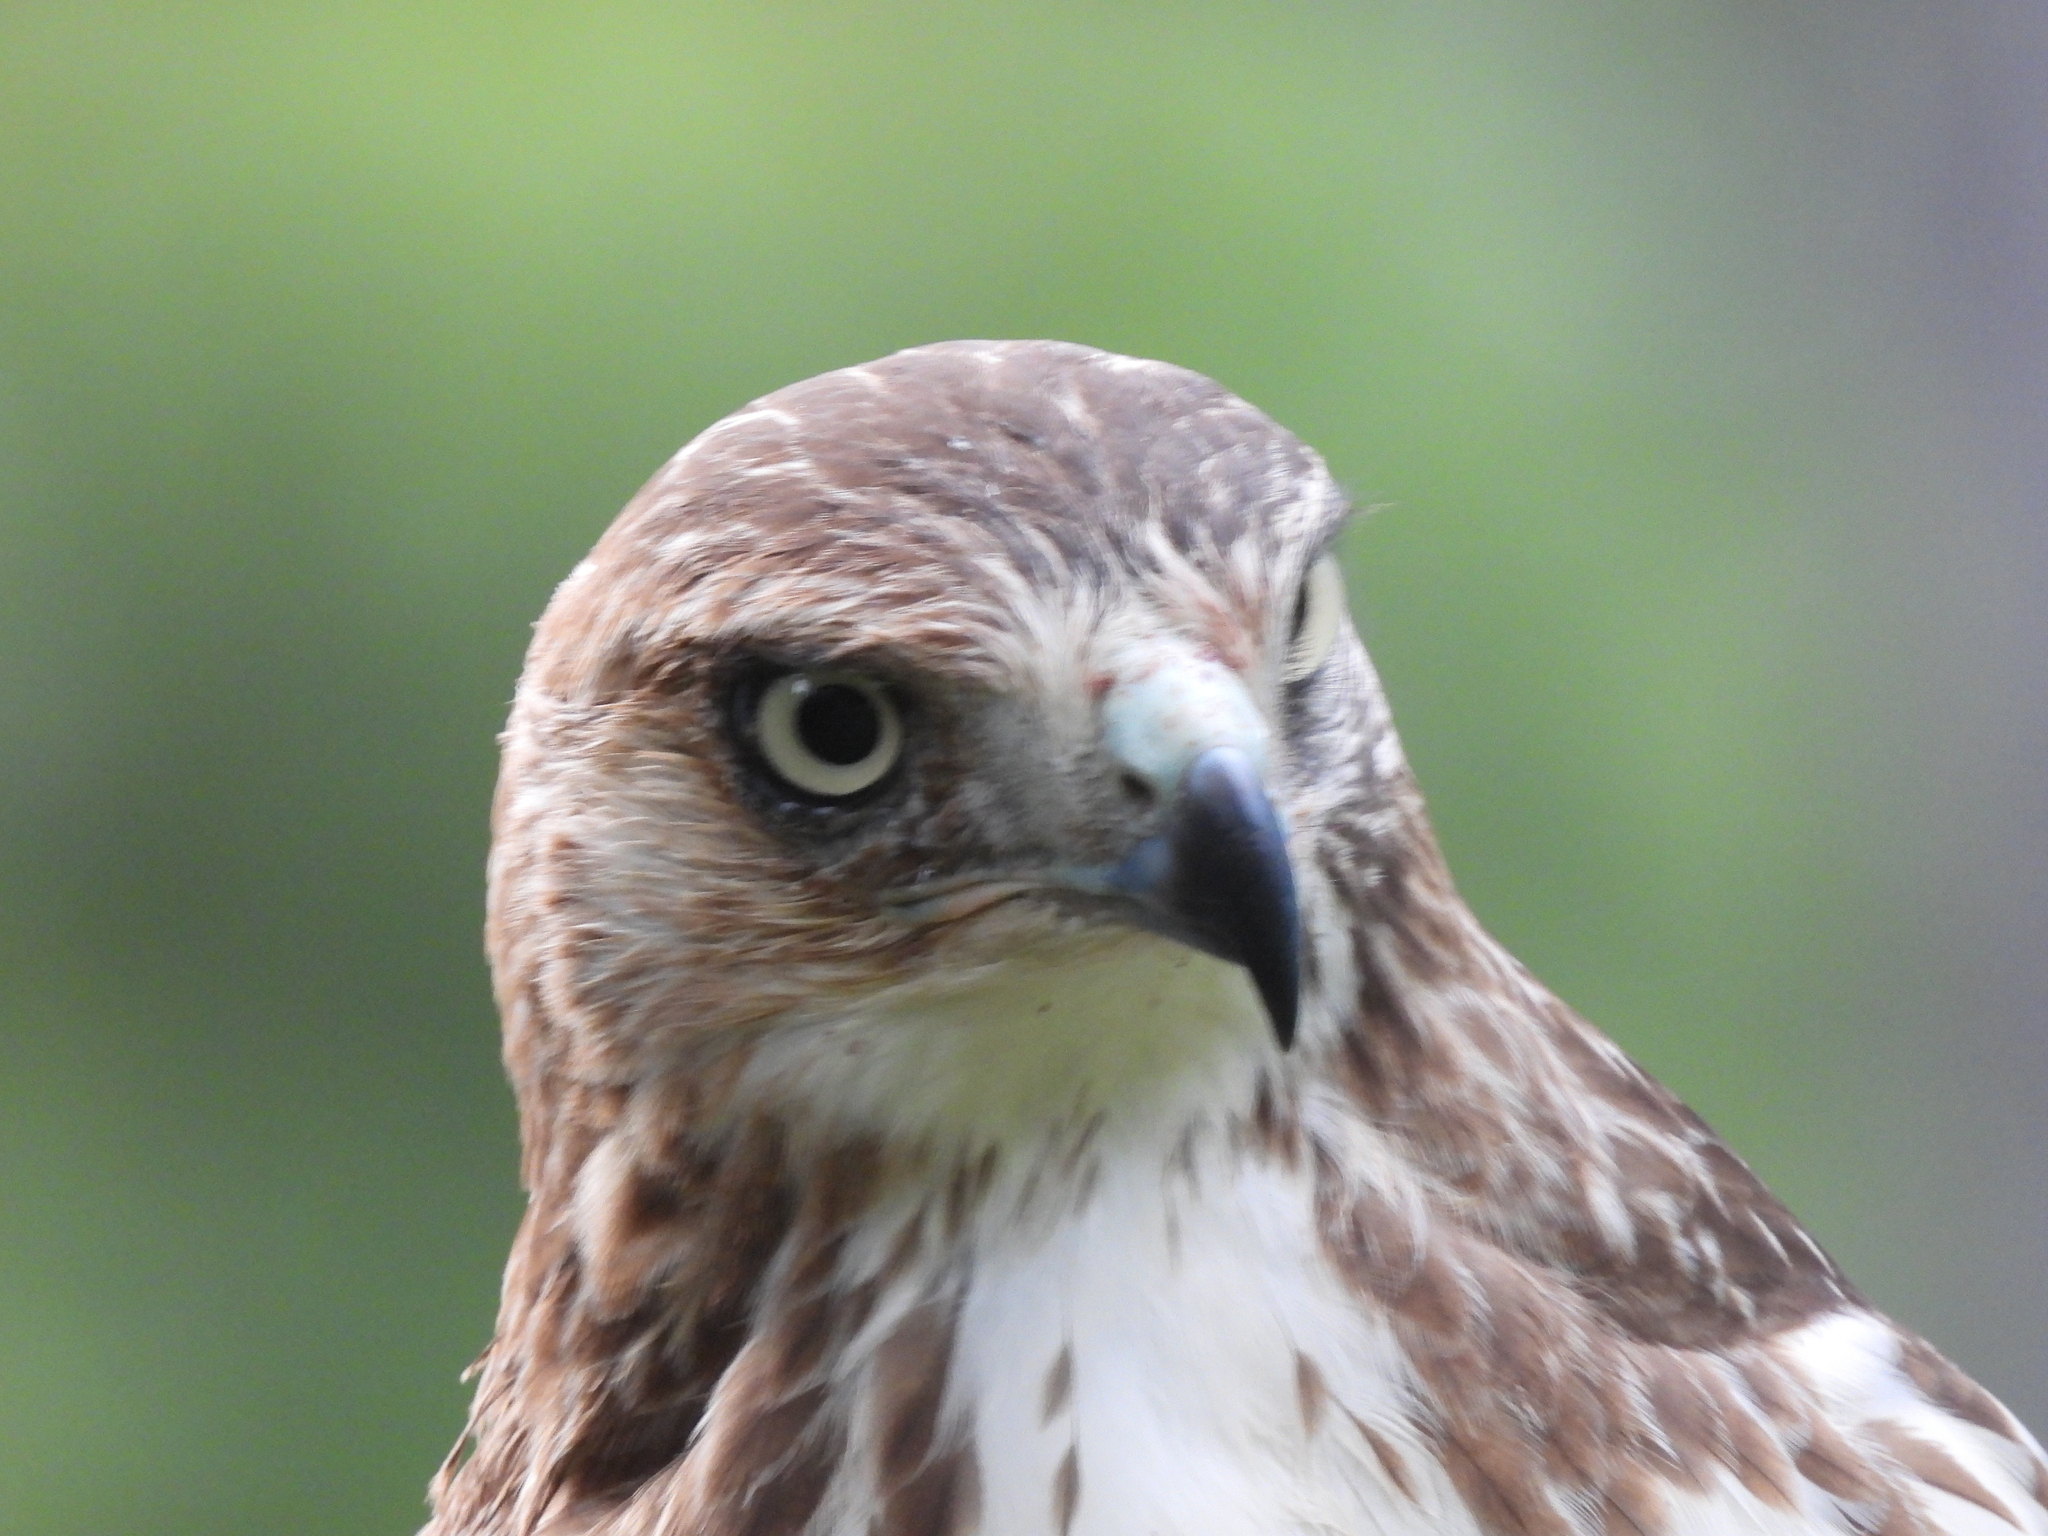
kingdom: Animalia
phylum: Chordata
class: Aves
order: Accipitriformes
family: Accipitridae
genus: Buteo
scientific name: Buteo jamaicensis
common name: Red-tailed hawk
